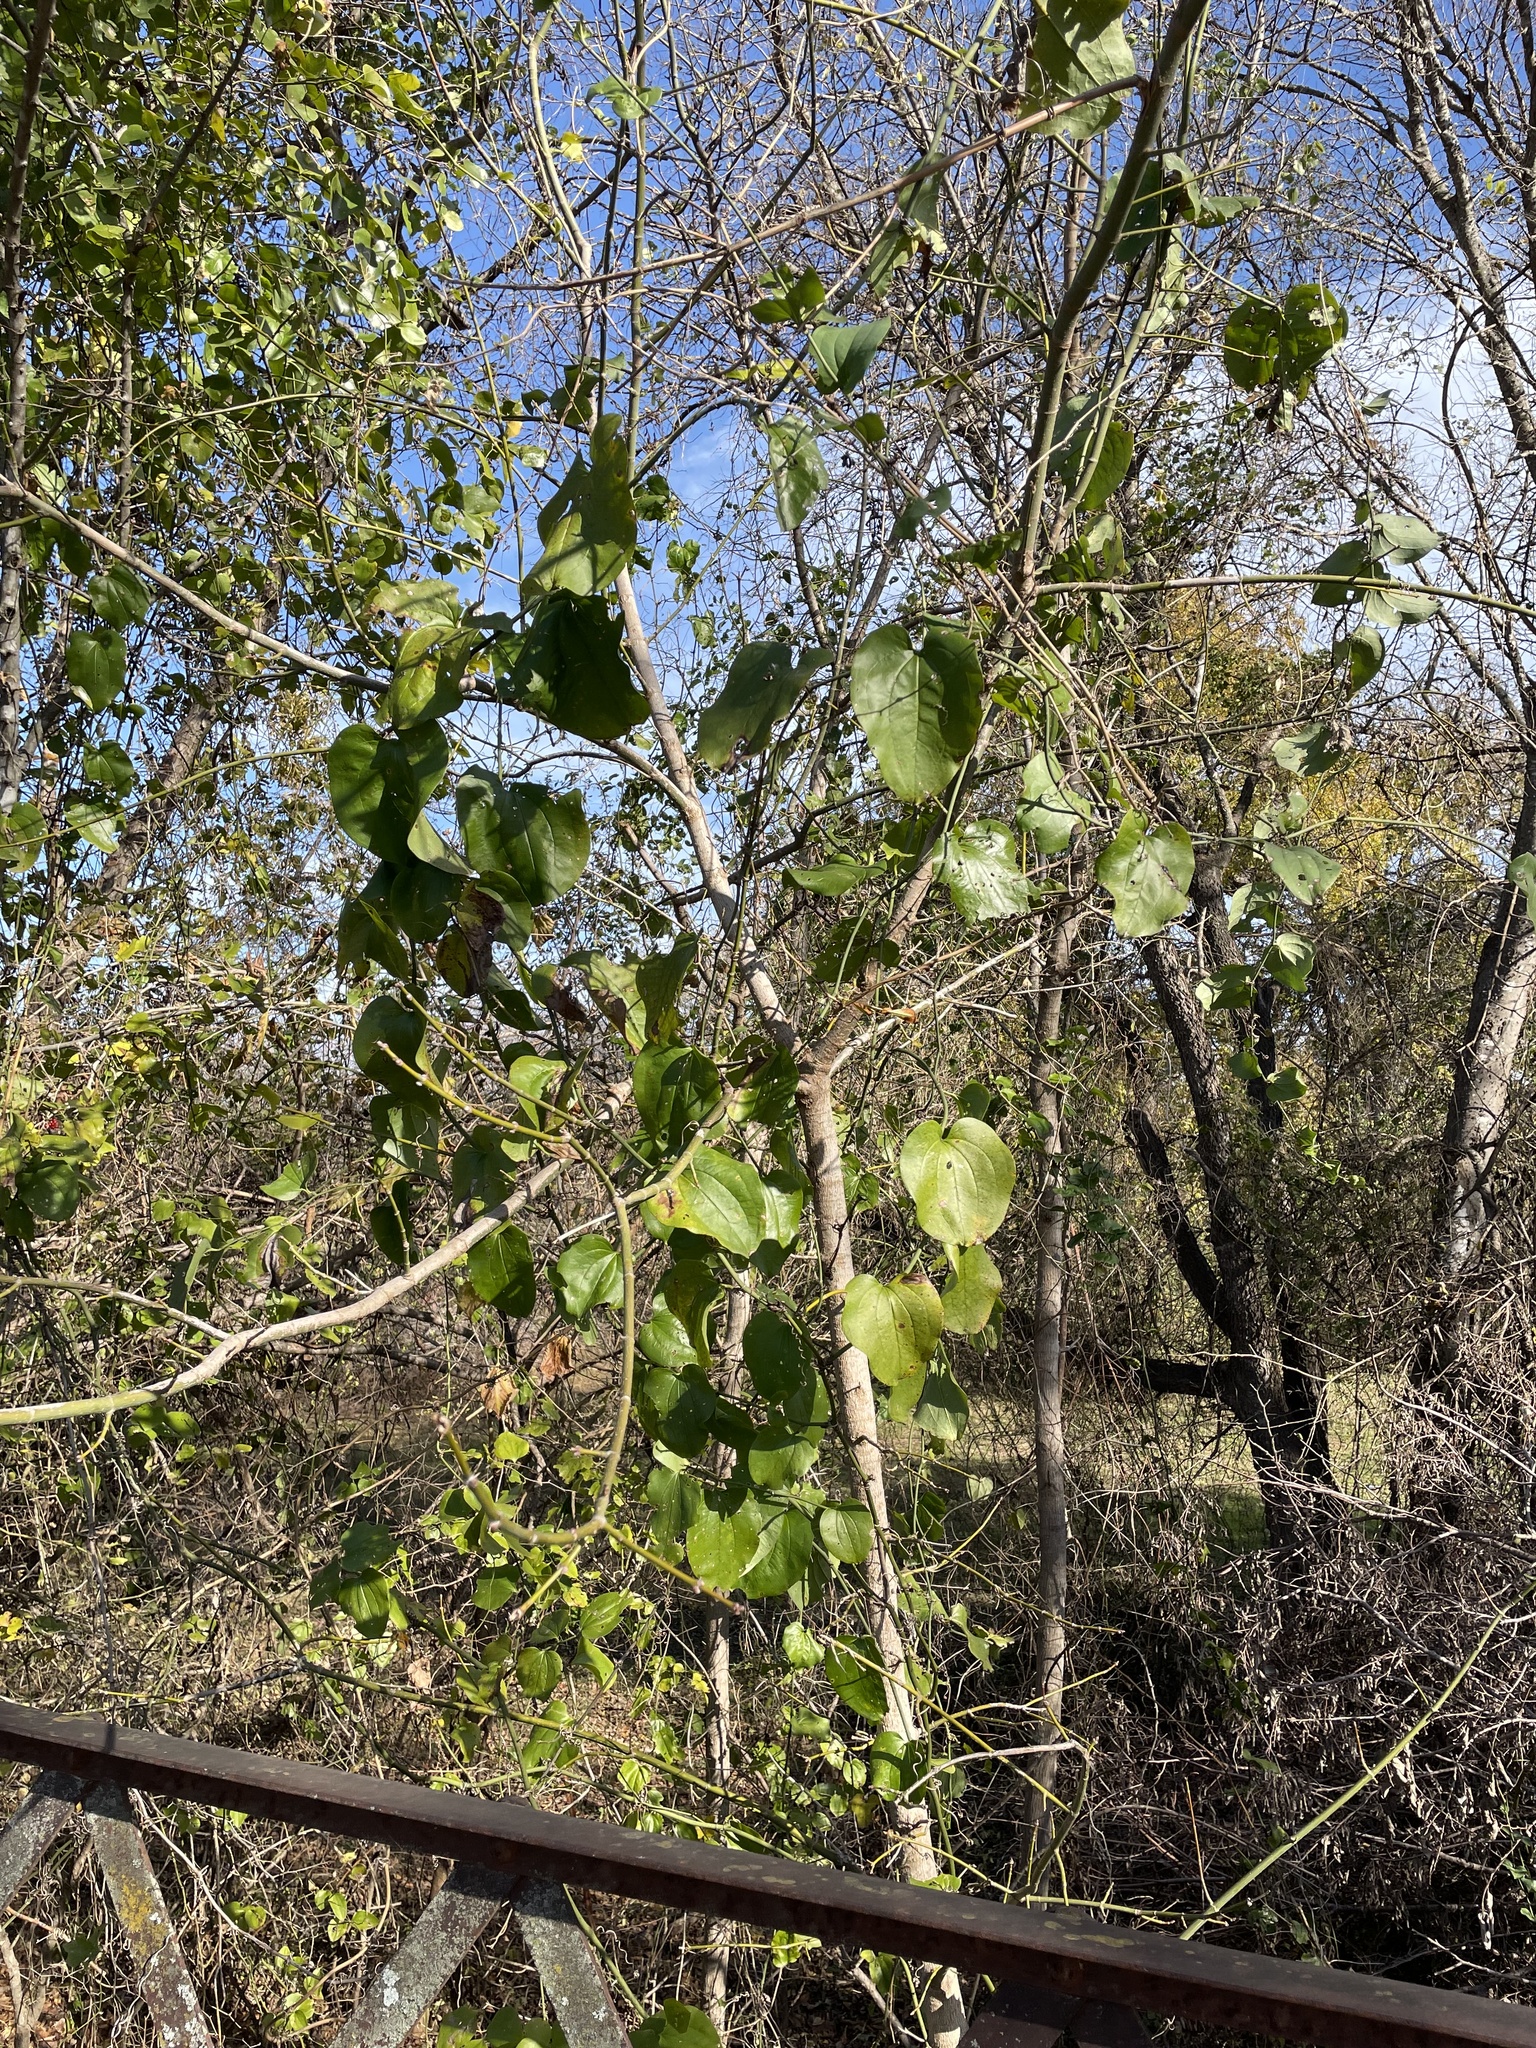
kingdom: Plantae
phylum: Tracheophyta
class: Liliopsida
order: Liliales
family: Smilacaceae
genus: Smilax
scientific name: Smilax rotundifolia
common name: Bullbriar
